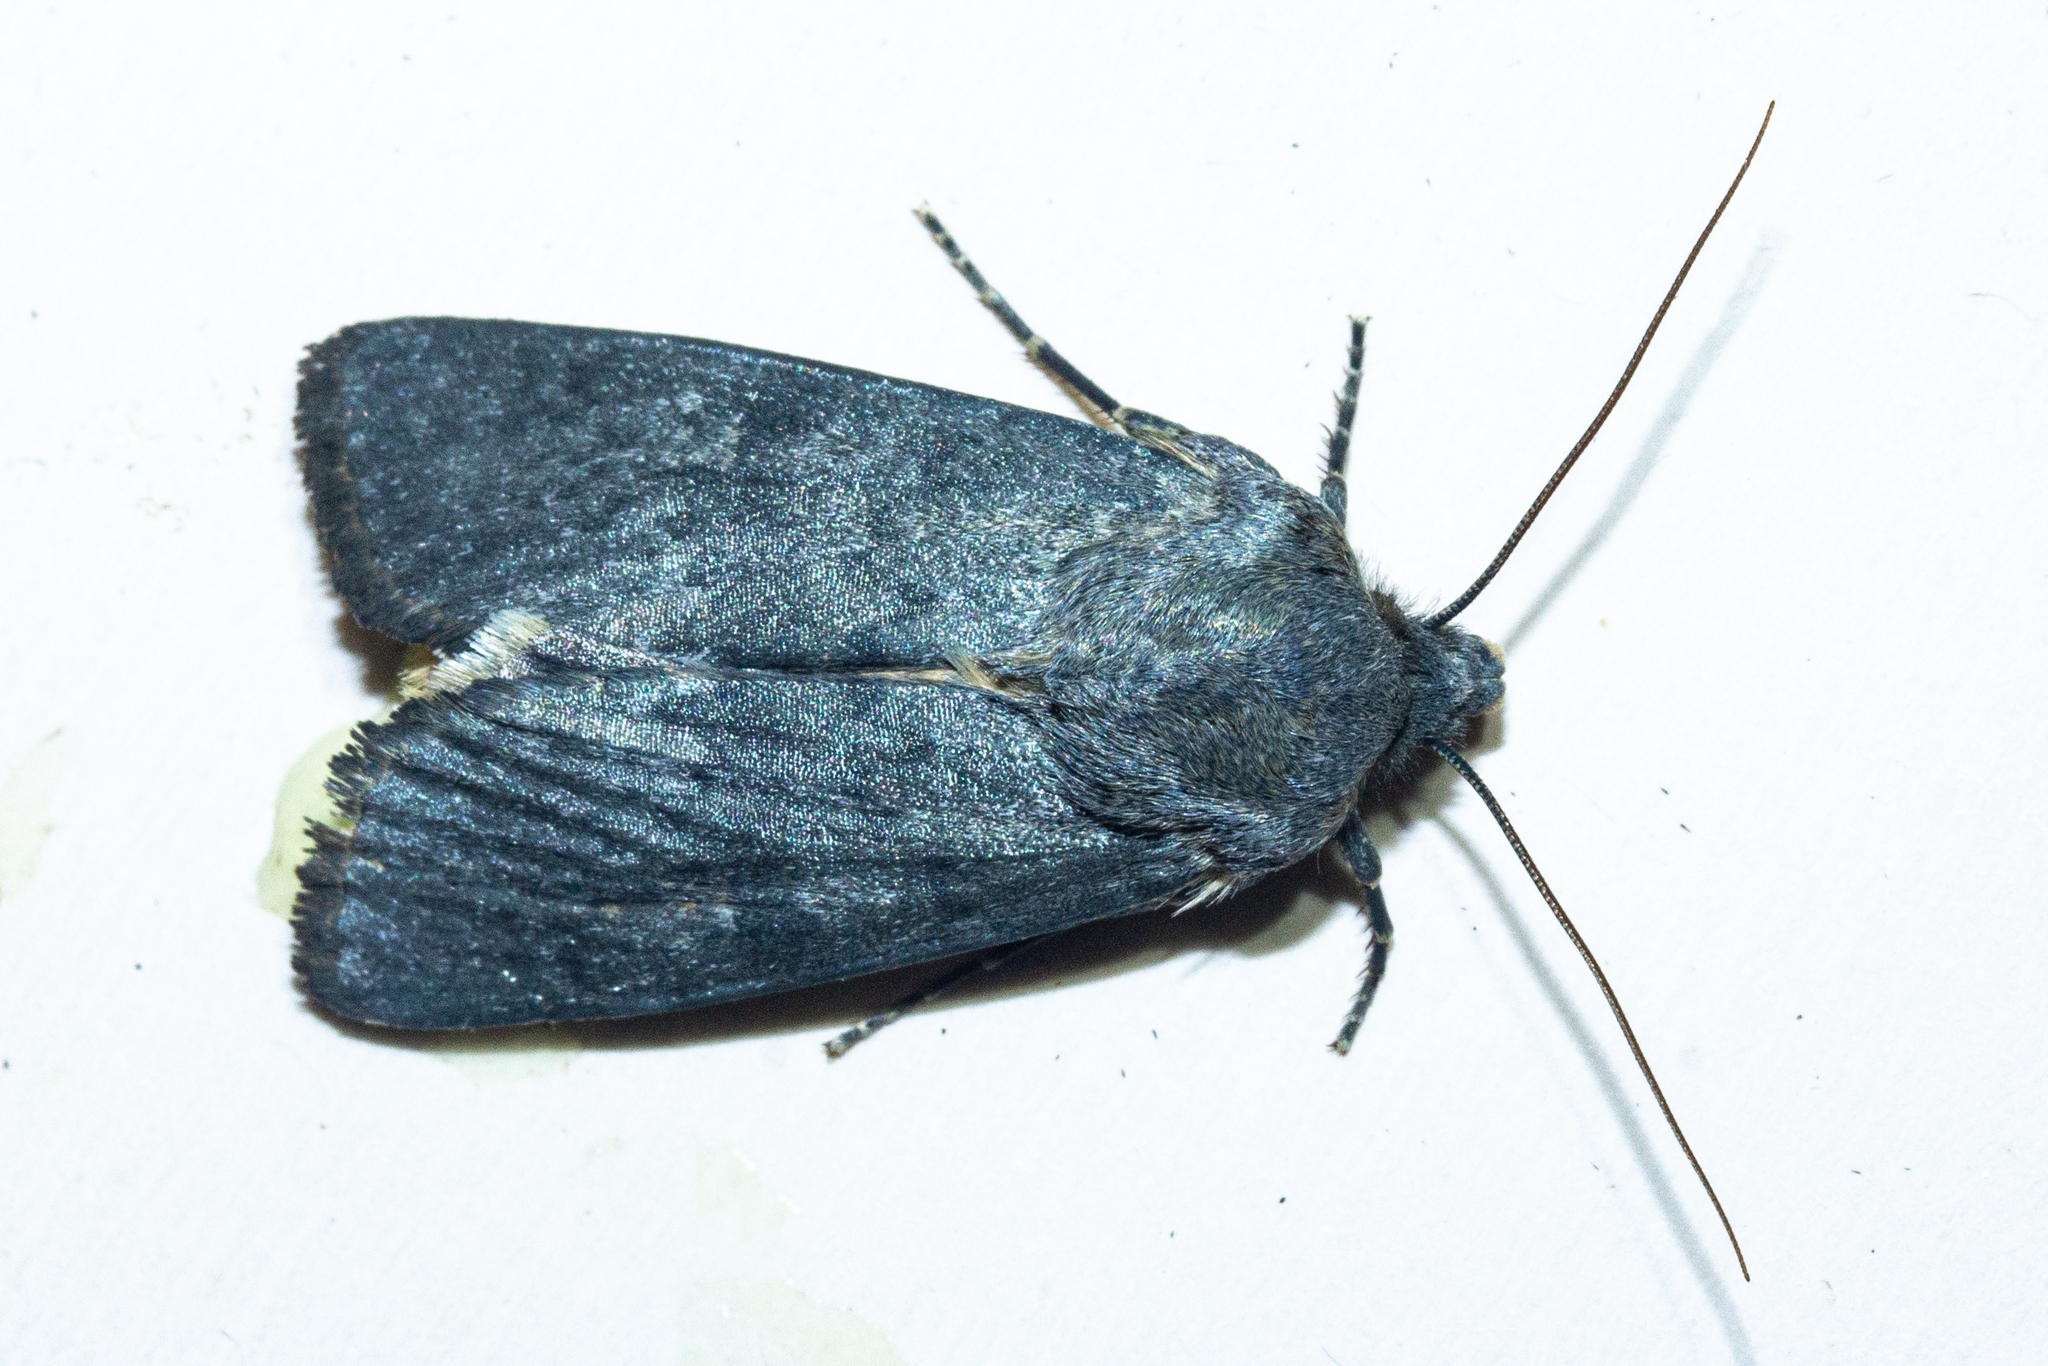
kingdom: Animalia
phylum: Arthropoda
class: Insecta
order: Lepidoptera
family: Noctuidae
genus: Physetica
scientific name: Physetica caerulea
